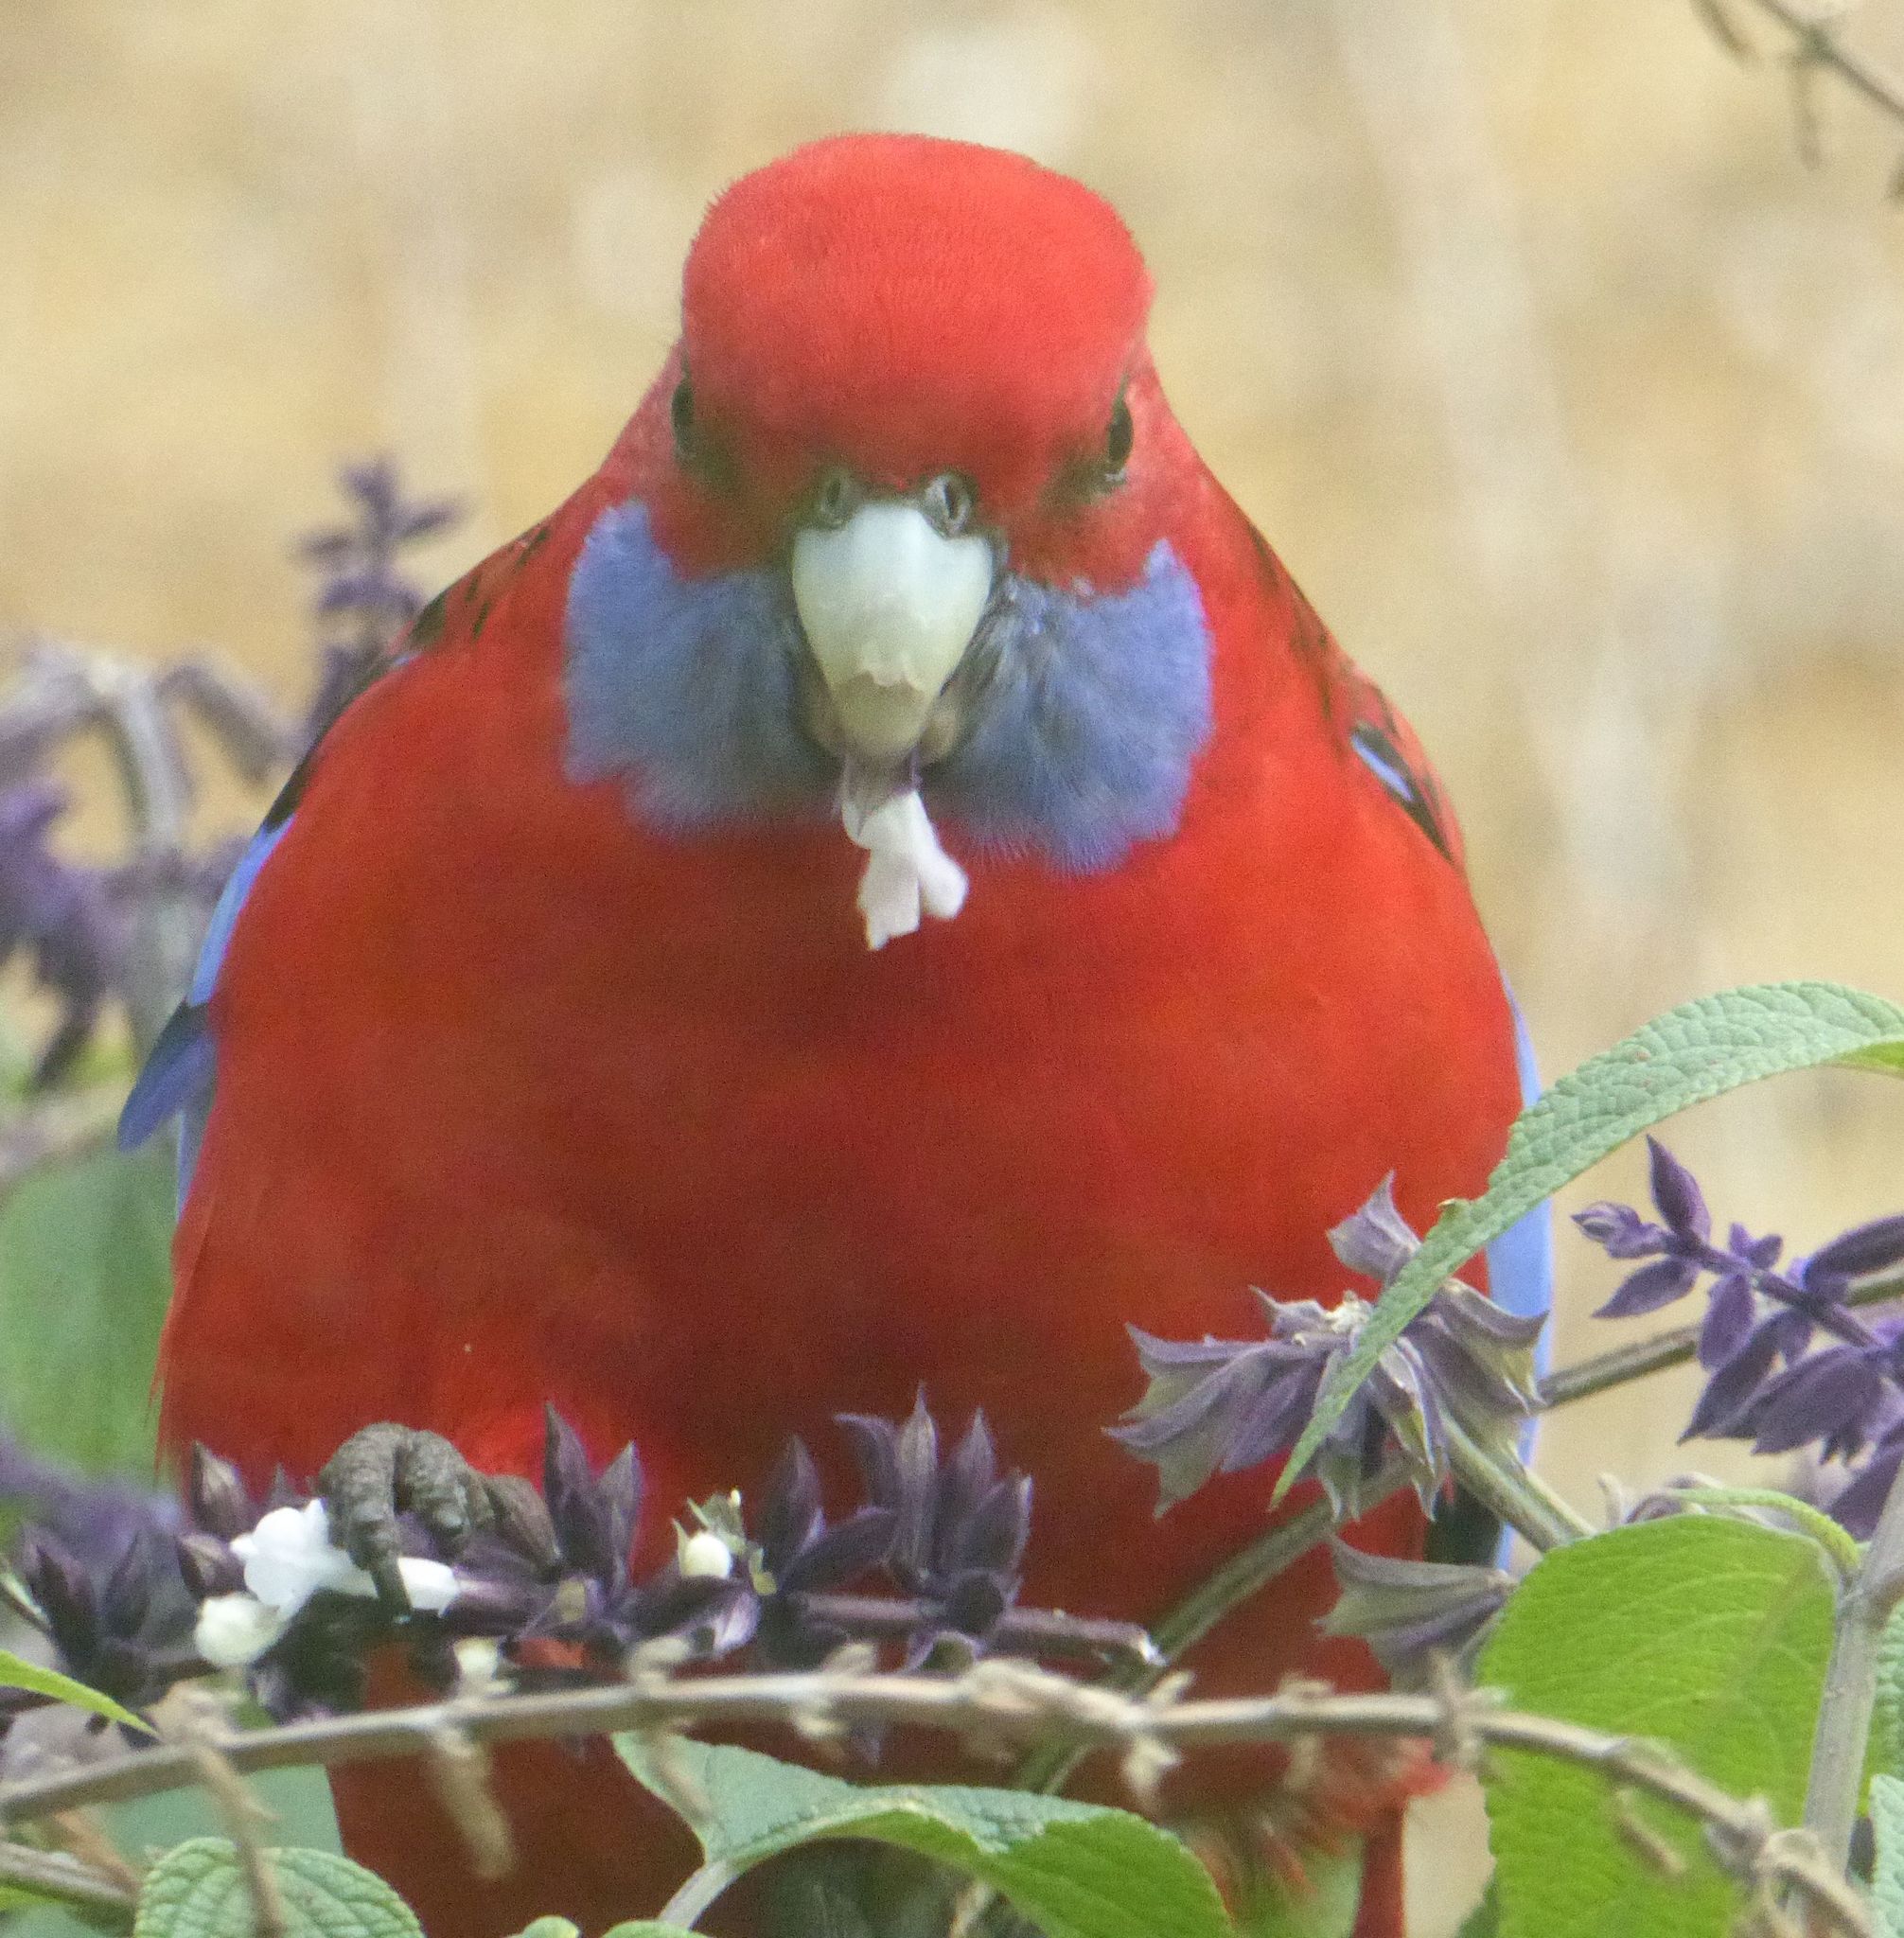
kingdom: Animalia
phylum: Chordata
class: Aves
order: Psittaciformes
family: Psittacidae
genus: Platycercus
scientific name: Platycercus elegans
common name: Crimson rosella
